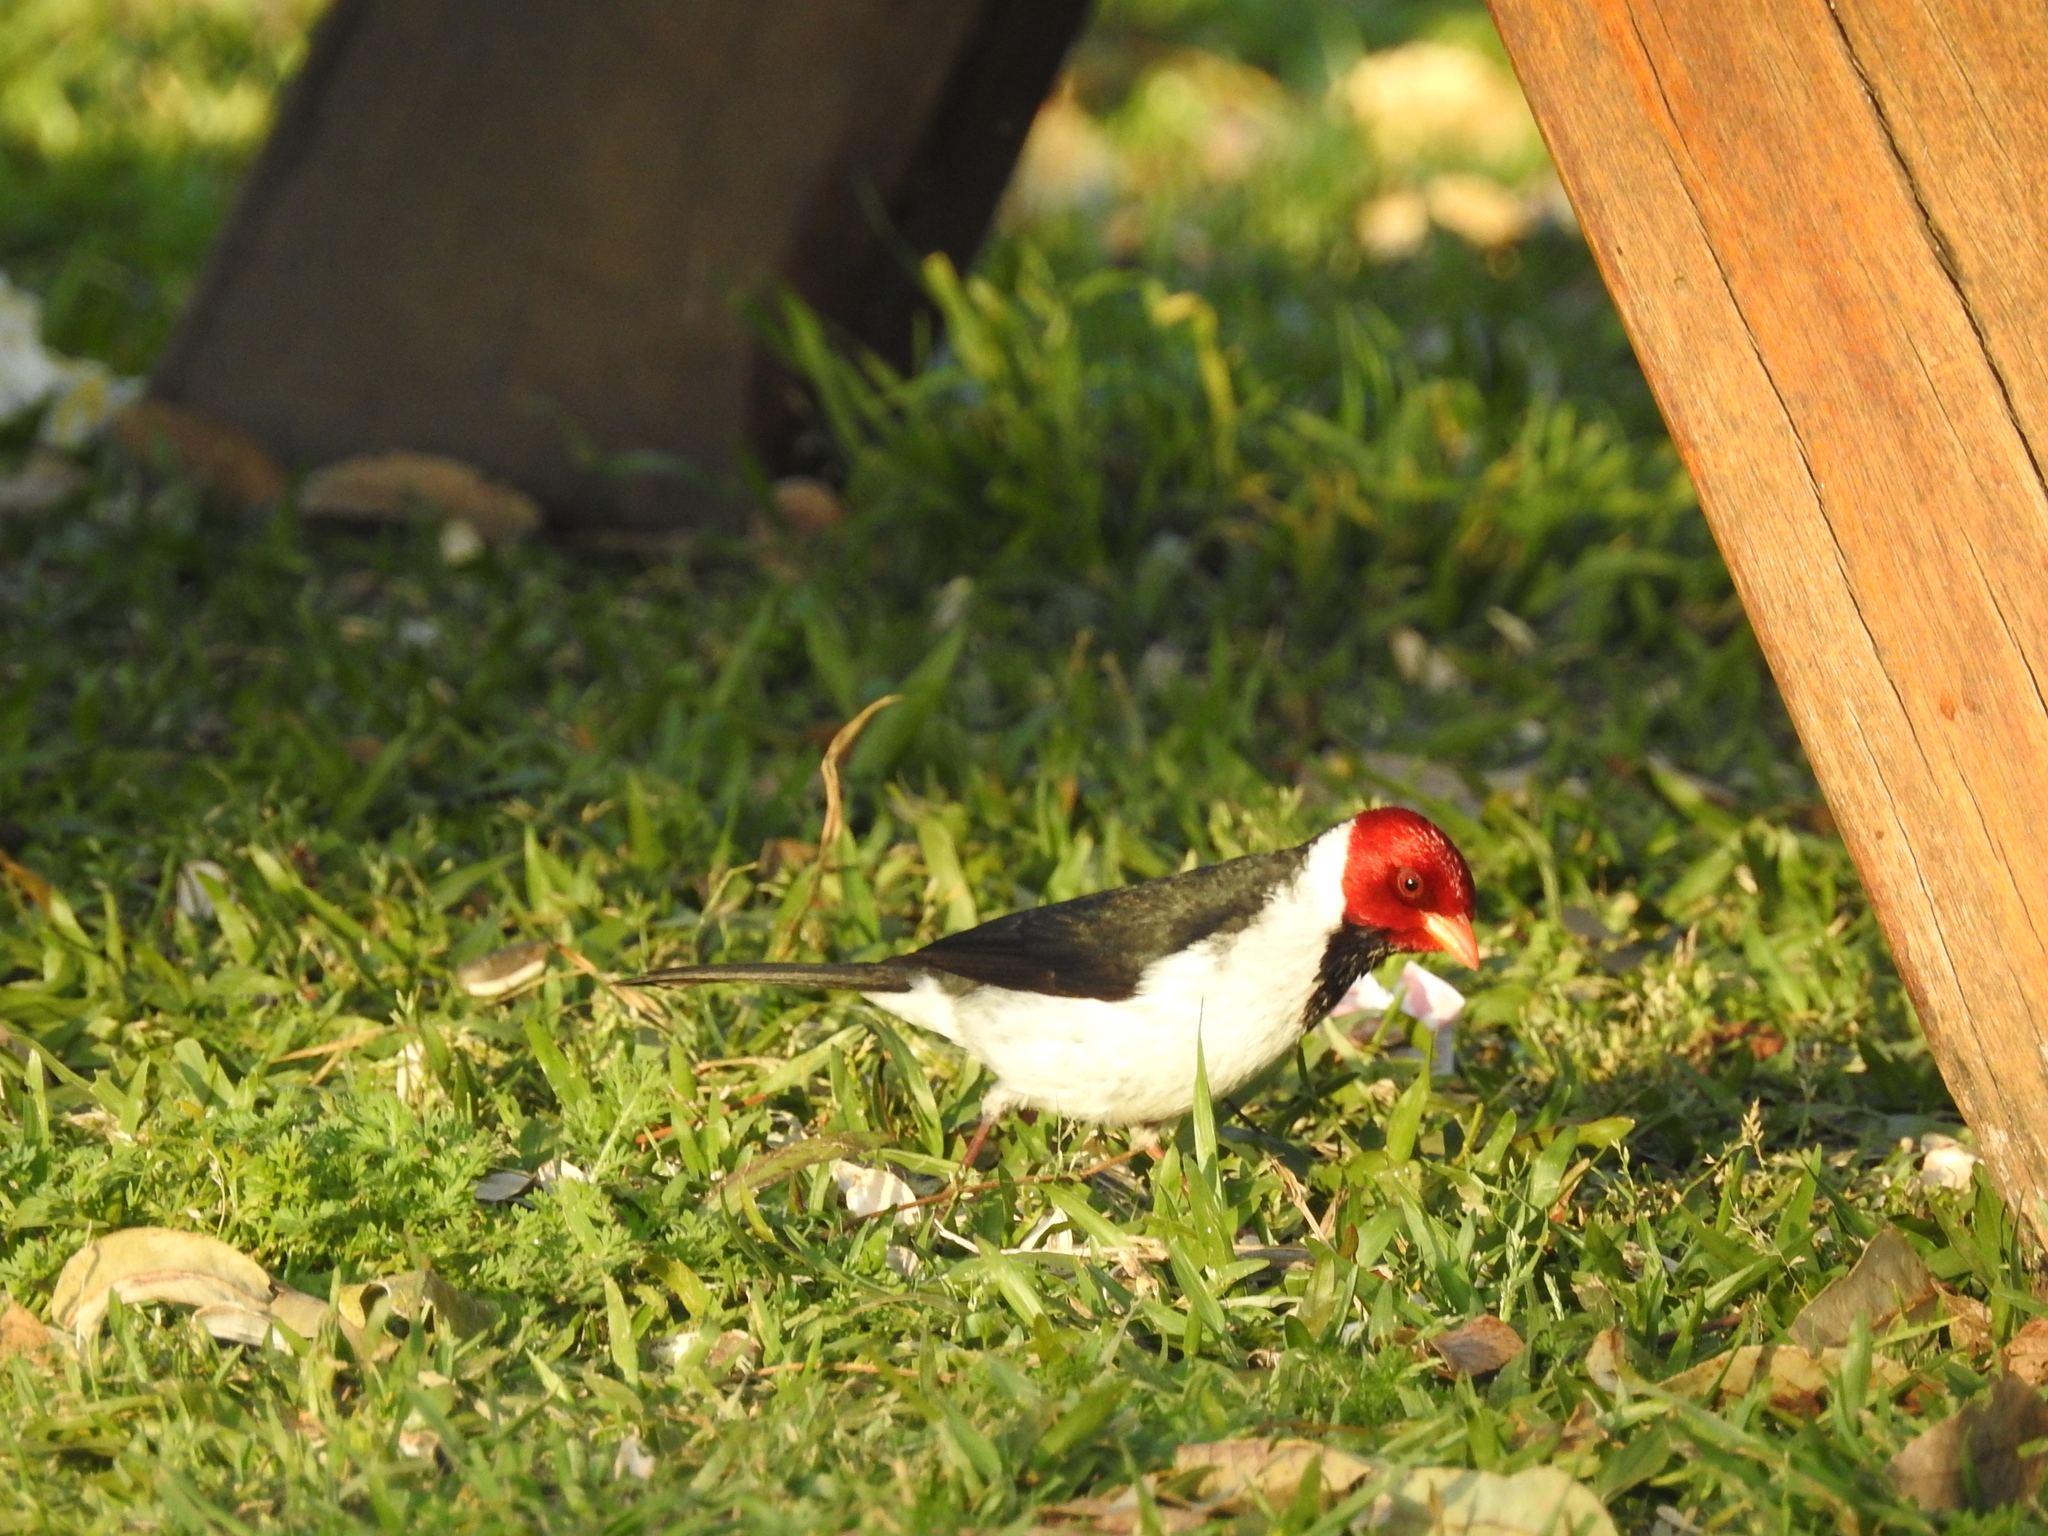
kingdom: Animalia
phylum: Chordata
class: Aves
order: Passeriformes
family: Thraupidae
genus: Paroaria
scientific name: Paroaria capitata
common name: Yellow-billed cardinal
